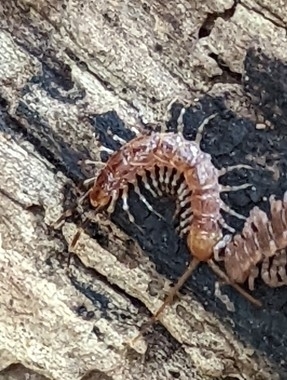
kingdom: Animalia
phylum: Arthropoda
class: Chilopoda
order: Lithobiomorpha
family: Lithobiidae
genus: Lithobius
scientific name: Lithobius variegatus
